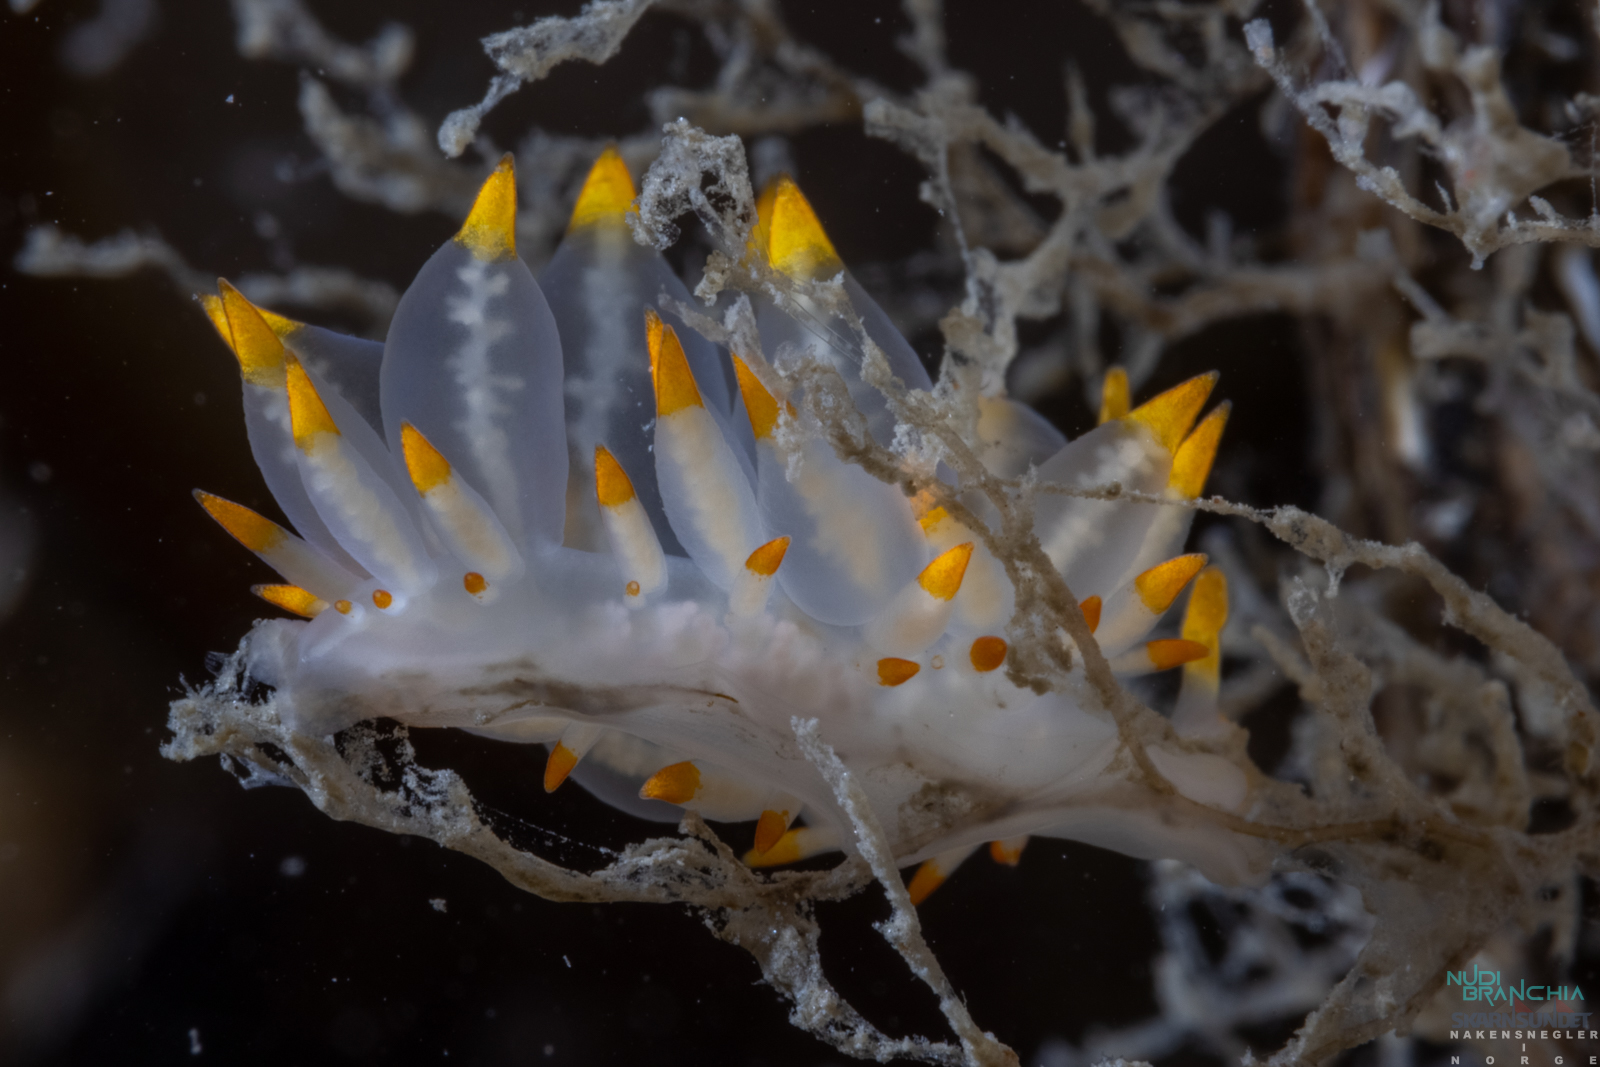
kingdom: Animalia
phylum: Mollusca
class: Gastropoda
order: Nudibranchia
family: Eubranchidae
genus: Amphorina
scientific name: Amphorina farrani
